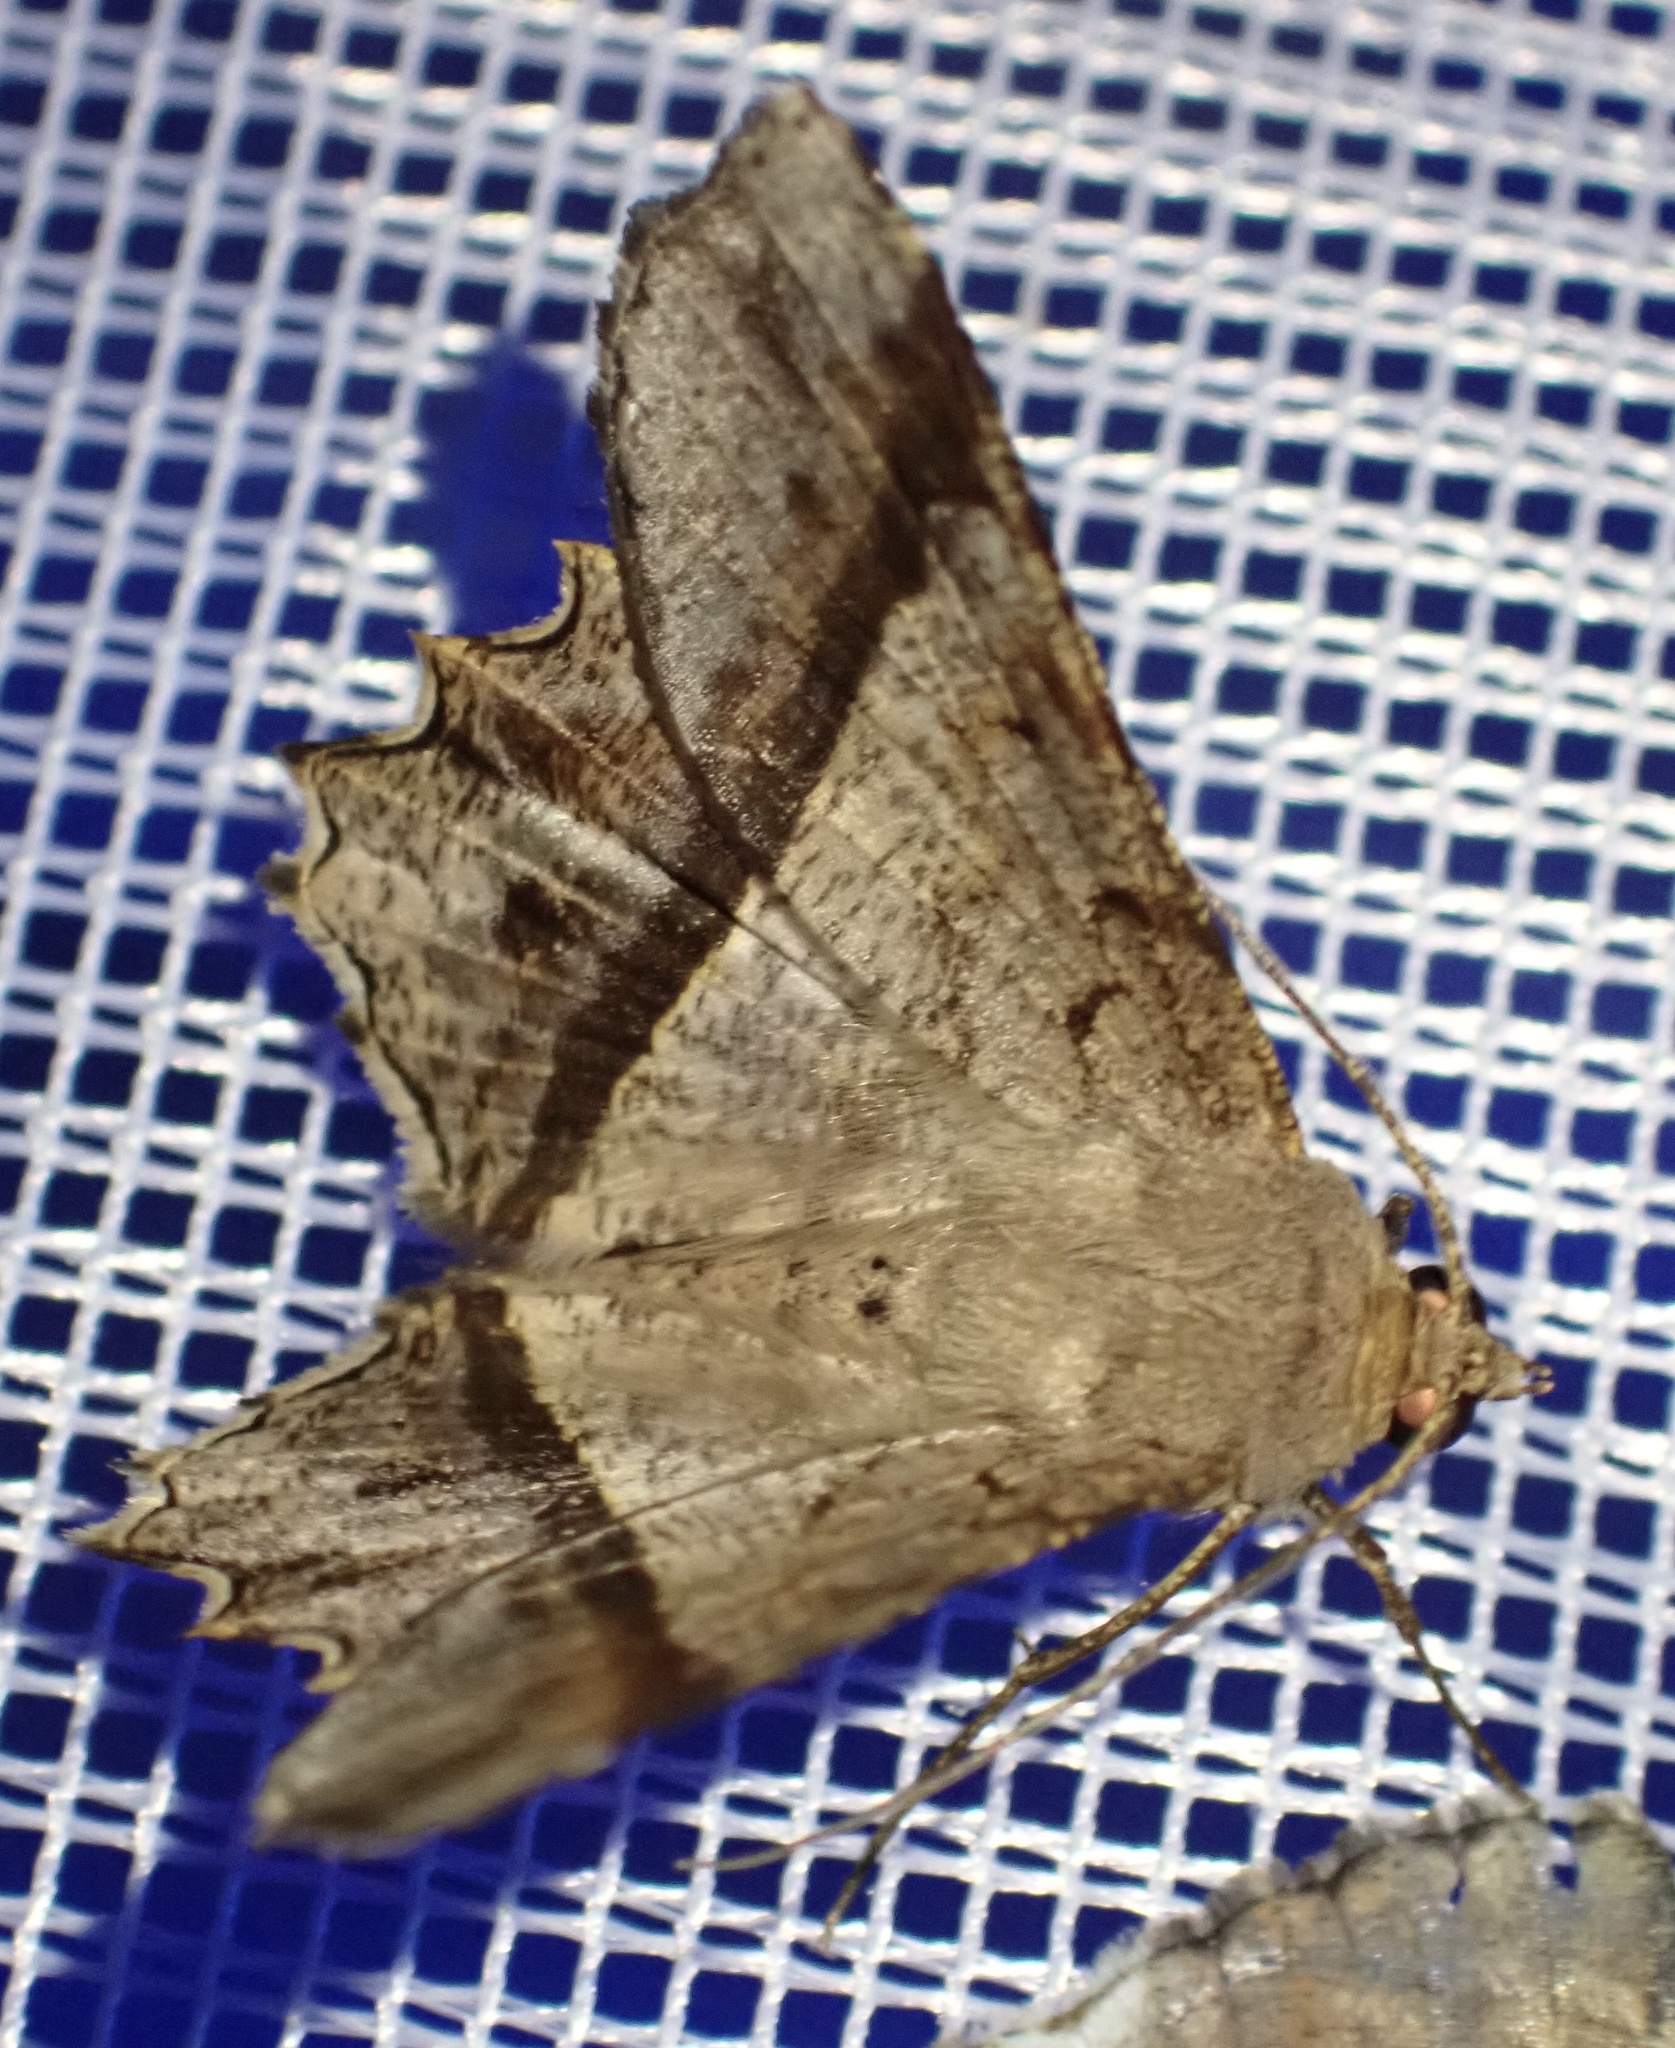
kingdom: Animalia
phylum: Arthropoda
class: Insecta
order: Lepidoptera
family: Geometridae
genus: Chiasmia
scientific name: Chiasmia avitusaria
